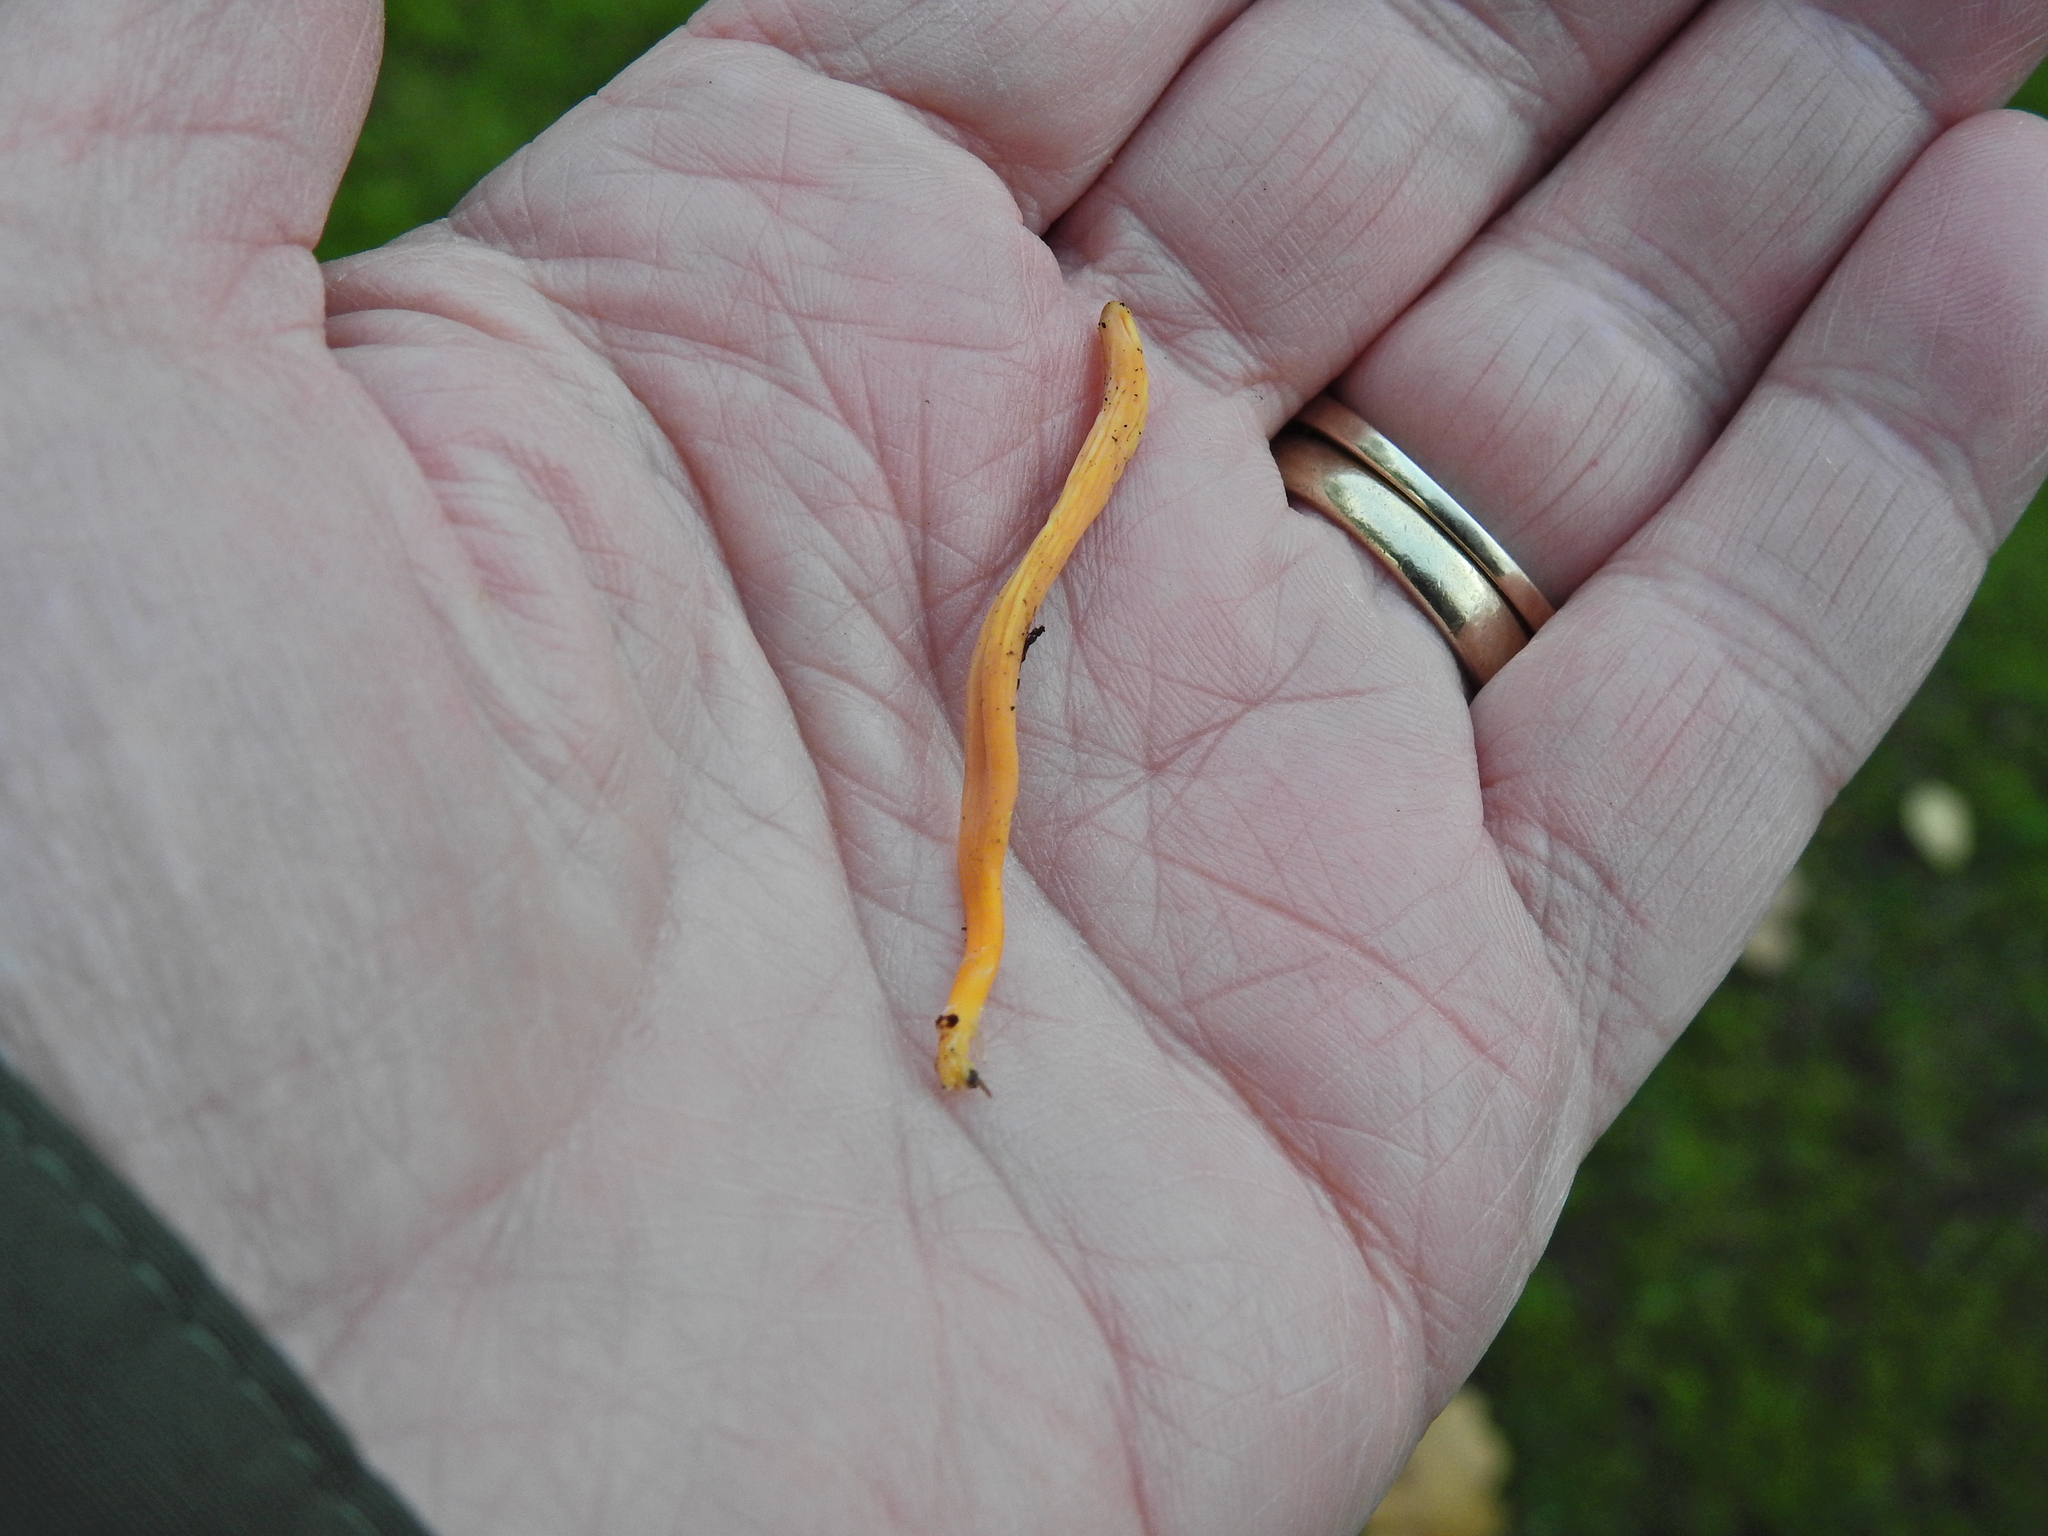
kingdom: Fungi
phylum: Basidiomycota
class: Agaricomycetes
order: Agaricales
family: Clavariaceae
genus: Clavulinopsis
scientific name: Clavulinopsis luteoalba
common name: Apricot club
